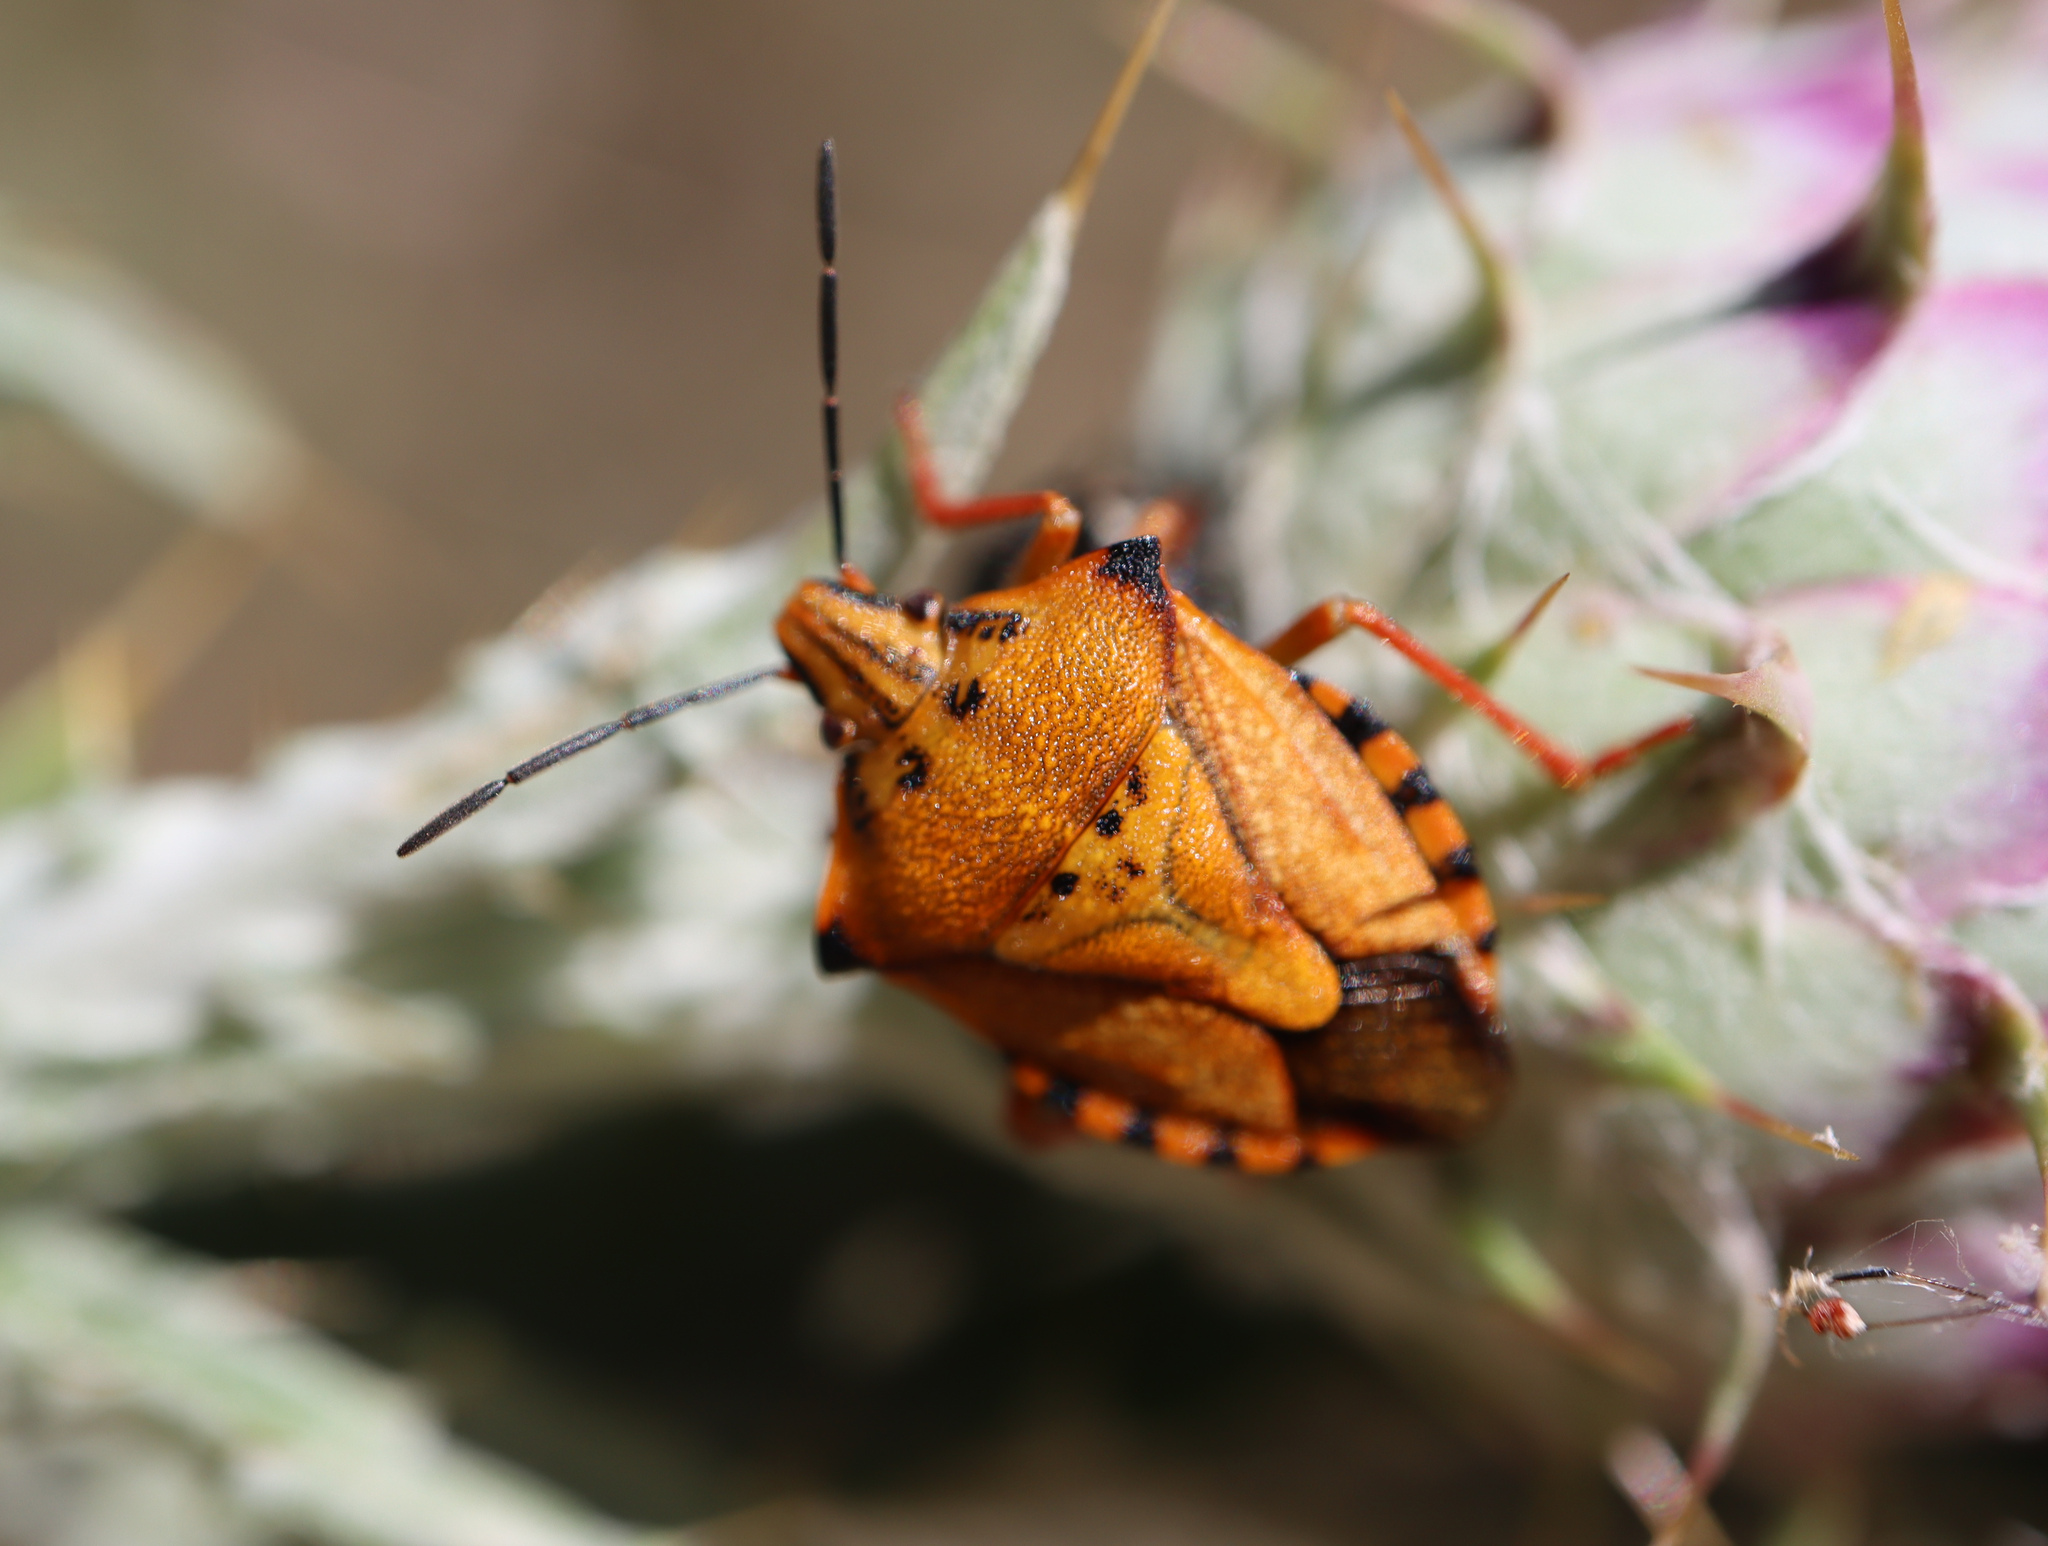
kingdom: Animalia
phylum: Arthropoda
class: Insecta
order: Hemiptera
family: Pentatomidae
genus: Carpocoris
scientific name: Carpocoris mediterraneus
